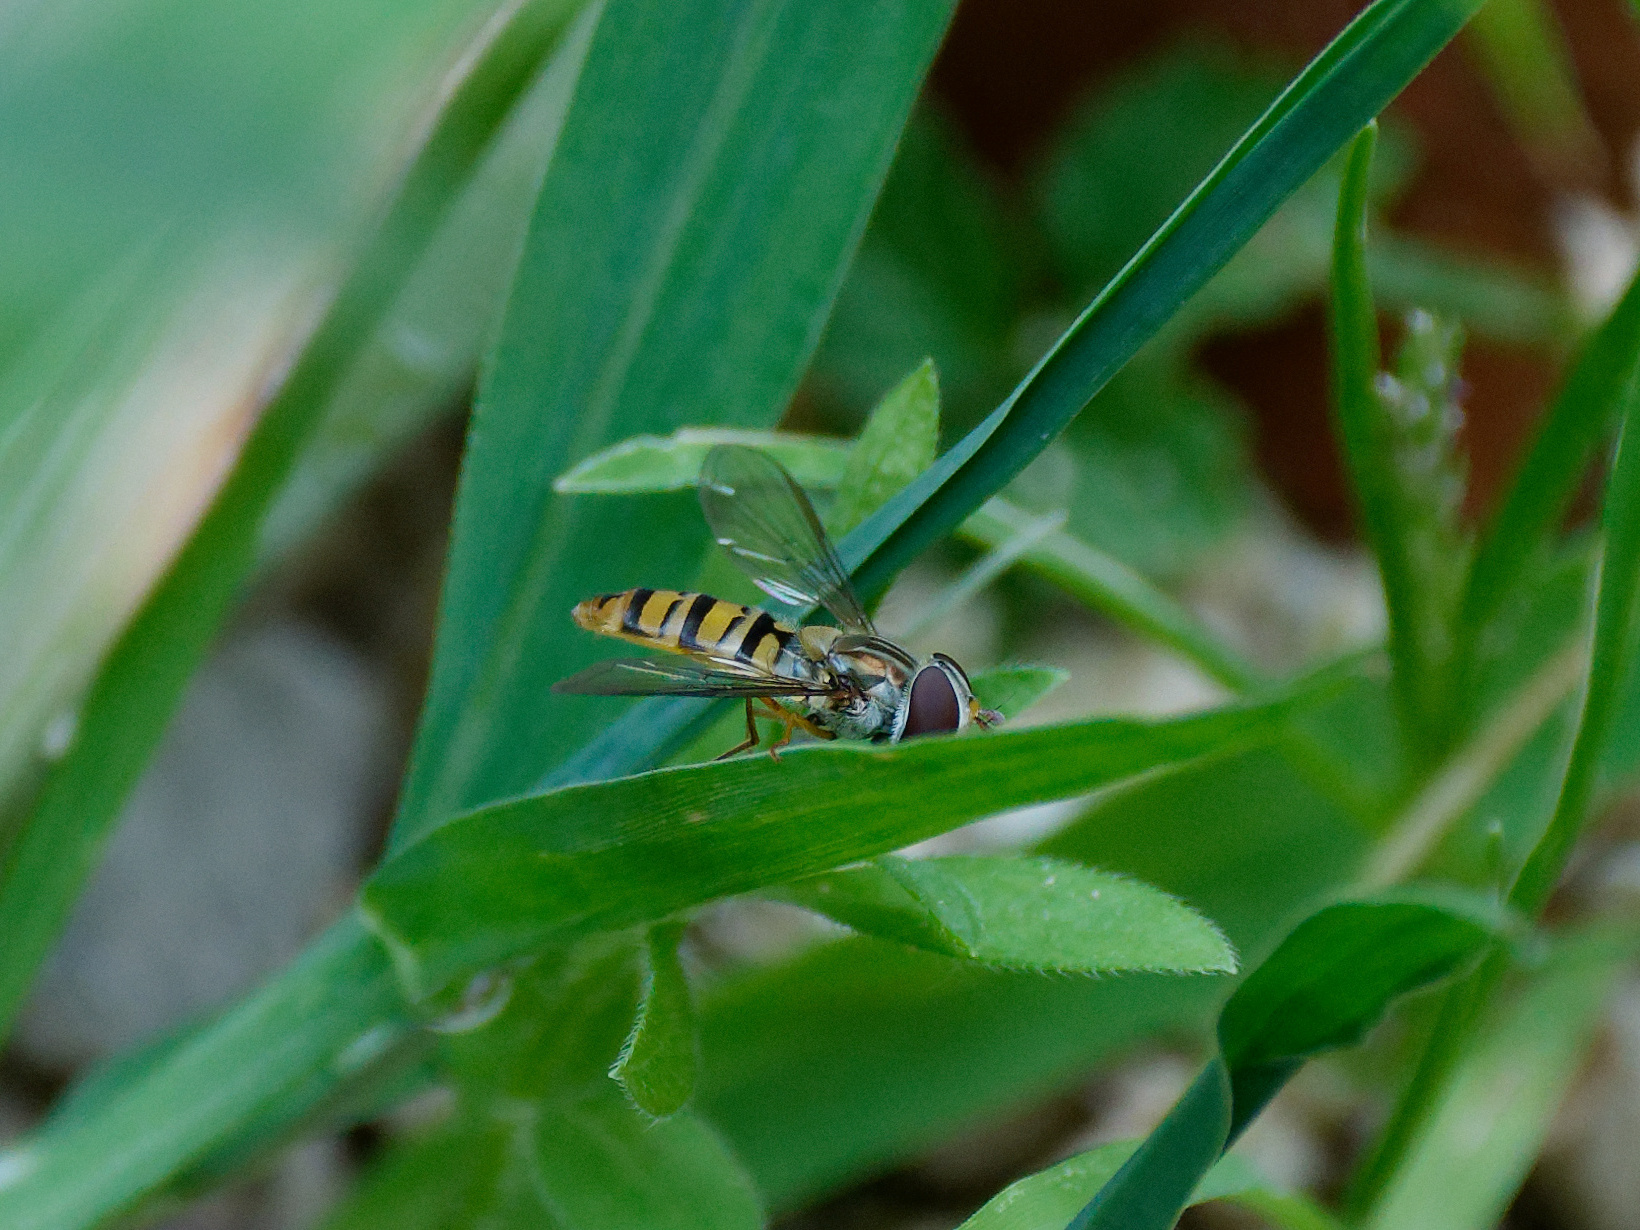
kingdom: Animalia
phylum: Arthropoda
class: Insecta
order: Diptera
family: Syrphidae
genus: Episyrphus
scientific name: Episyrphus balteatus
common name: Marmalade hoverfly
